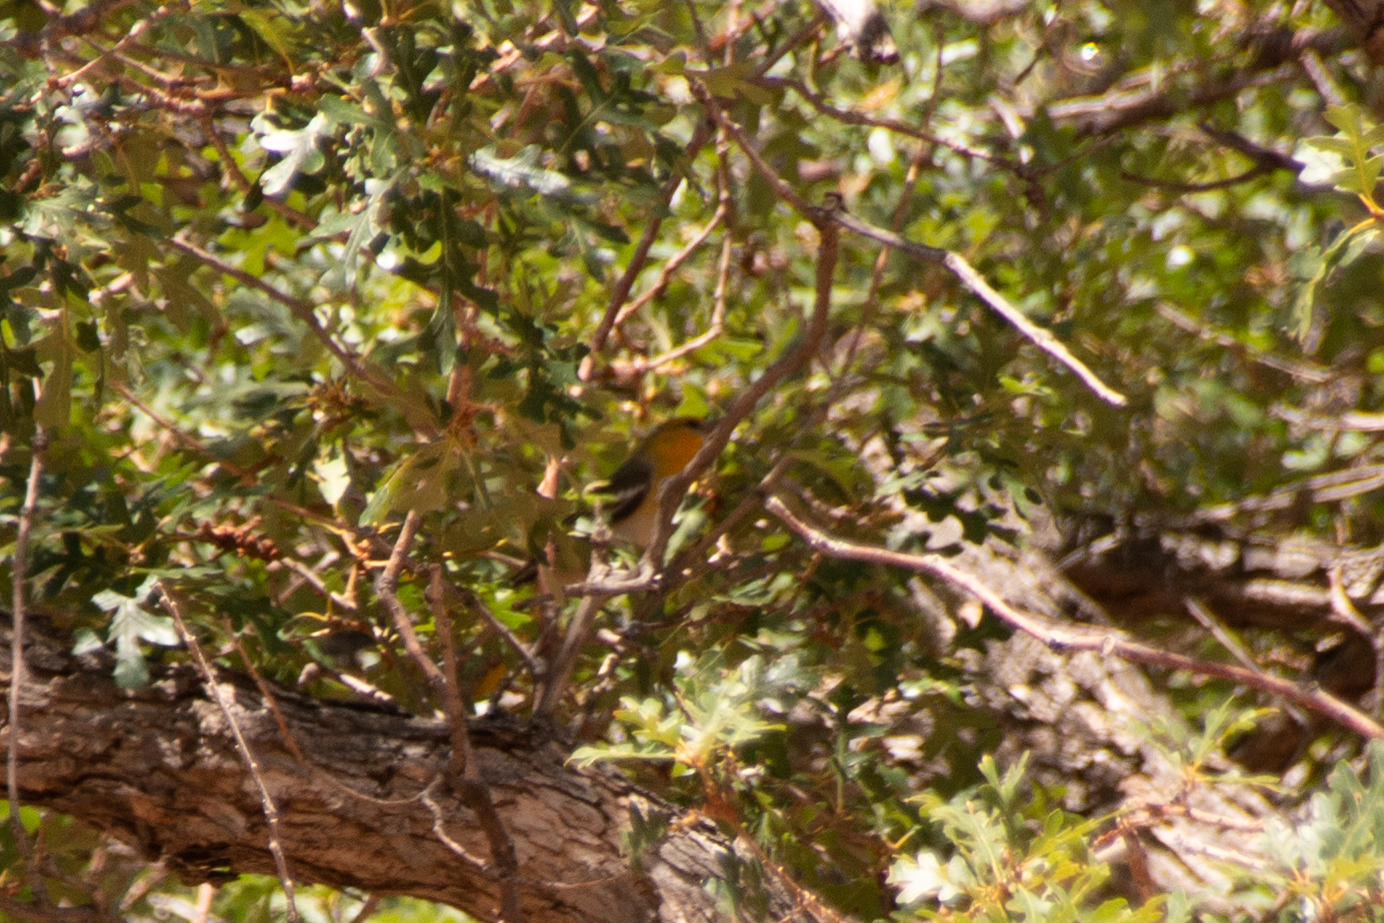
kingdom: Animalia
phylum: Chordata
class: Aves
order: Passeriformes
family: Icteridae
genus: Icterus
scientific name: Icterus bullockii
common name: Bullock's oriole
